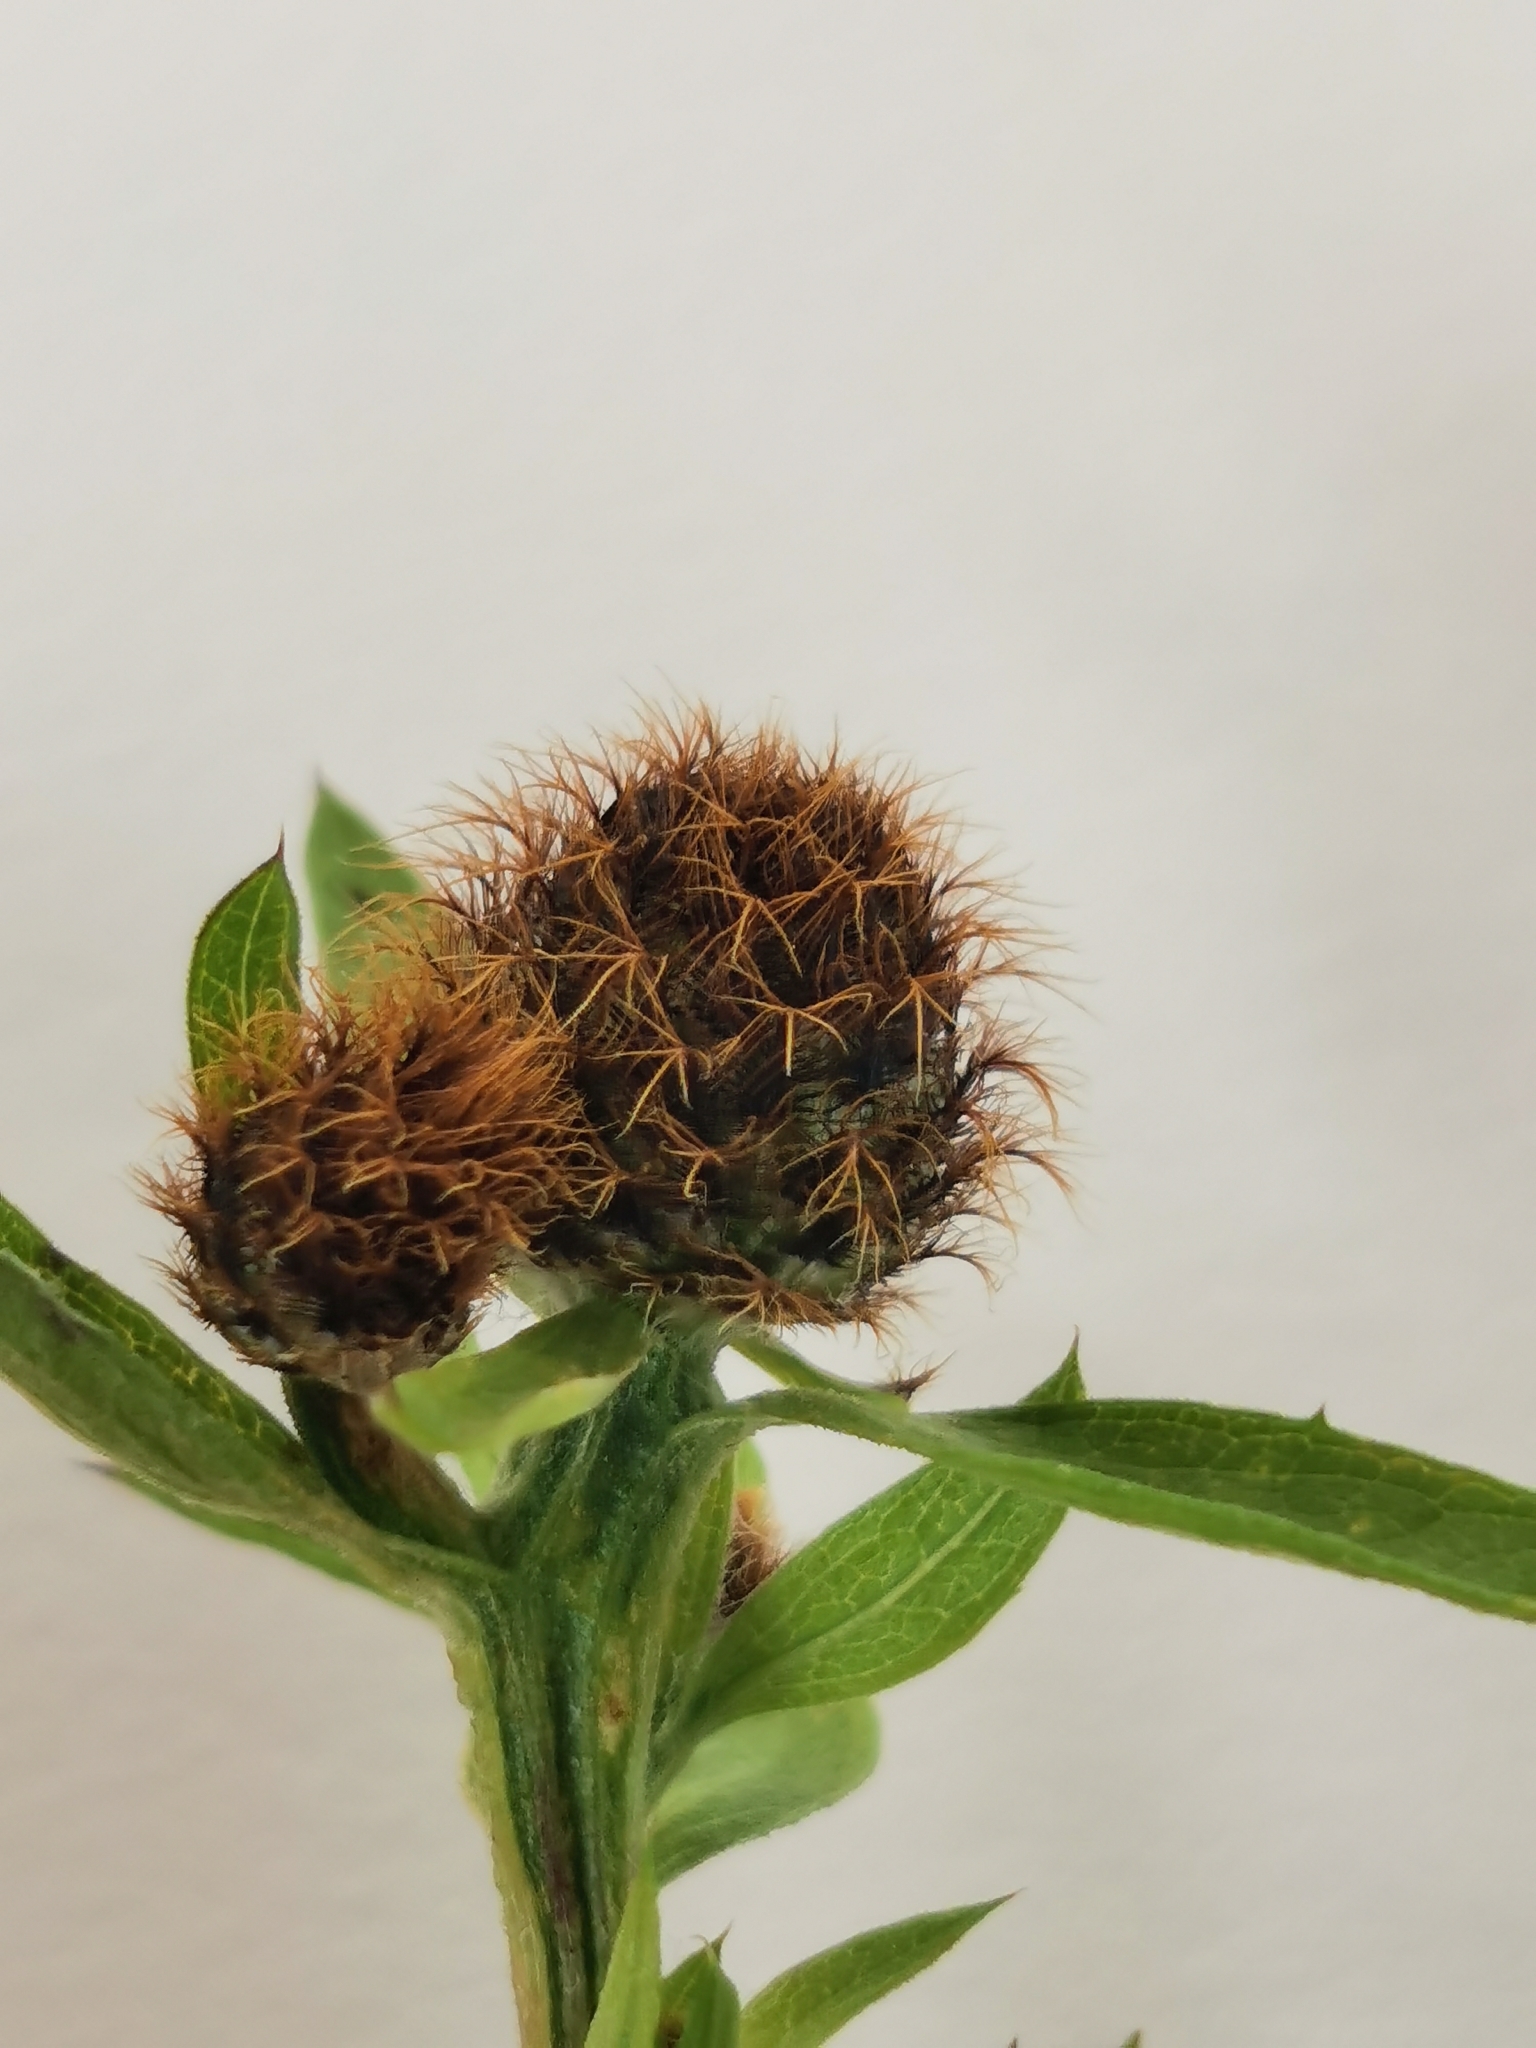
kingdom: Plantae
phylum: Tracheophyta
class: Magnoliopsida
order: Asterales
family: Asteraceae
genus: Centaurea
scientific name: Centaurea phrygia
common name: Wig knapweed
